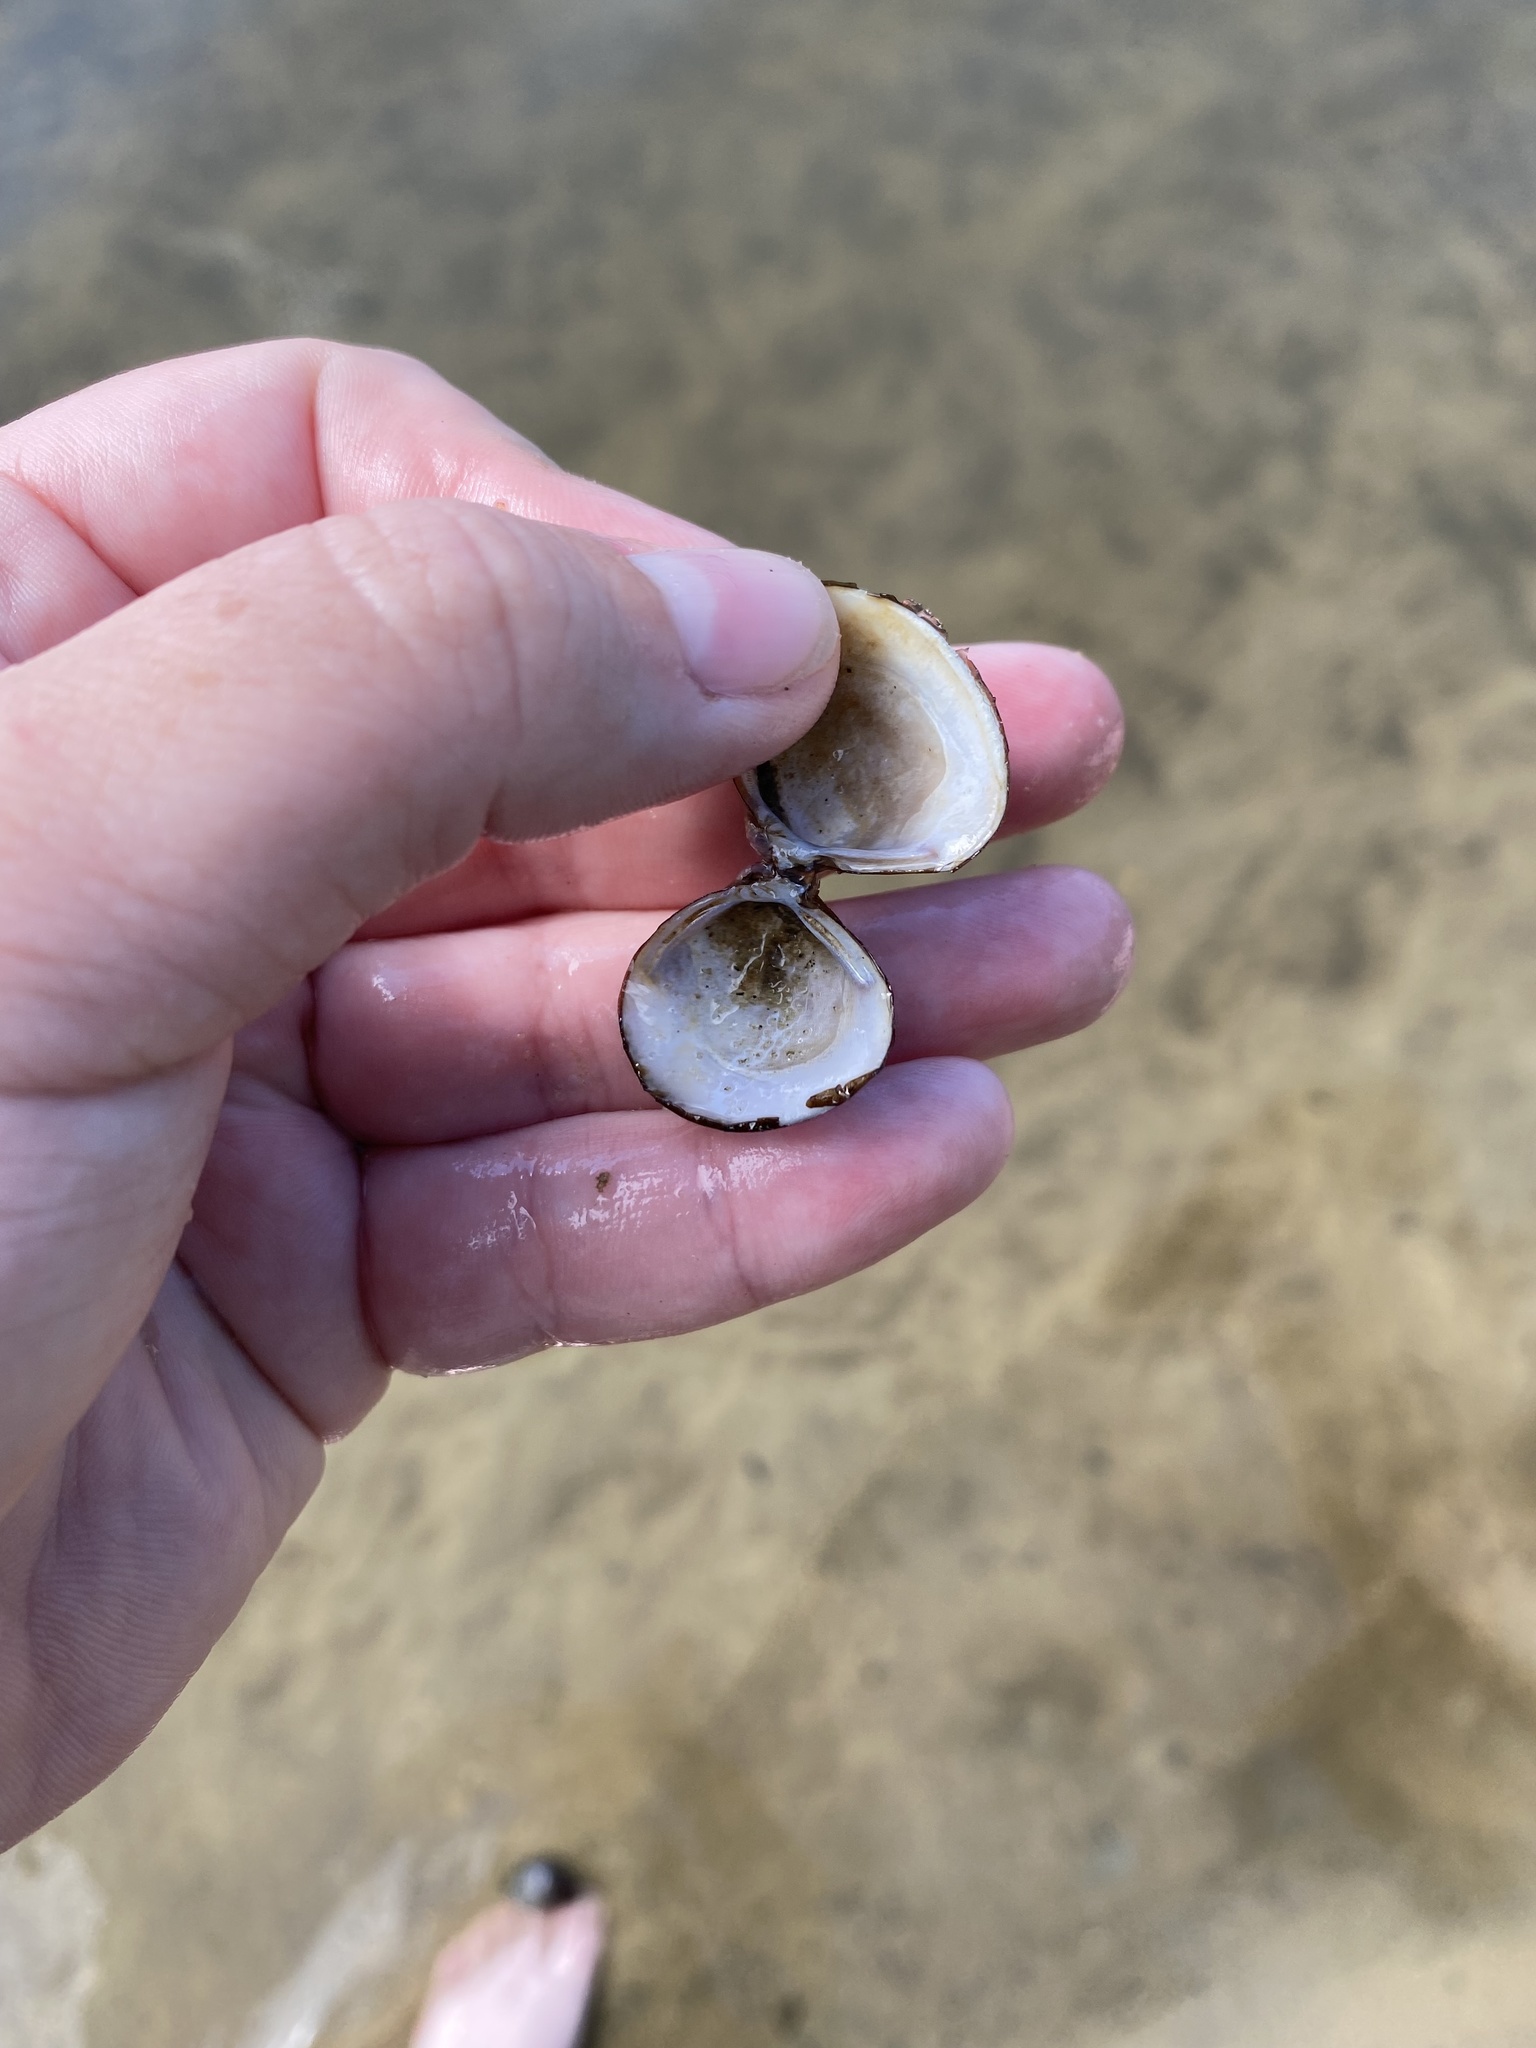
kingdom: Animalia
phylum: Mollusca
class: Bivalvia
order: Venerida
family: Cyrenidae
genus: Corbicula
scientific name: Corbicula fluminea
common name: Asian clam
